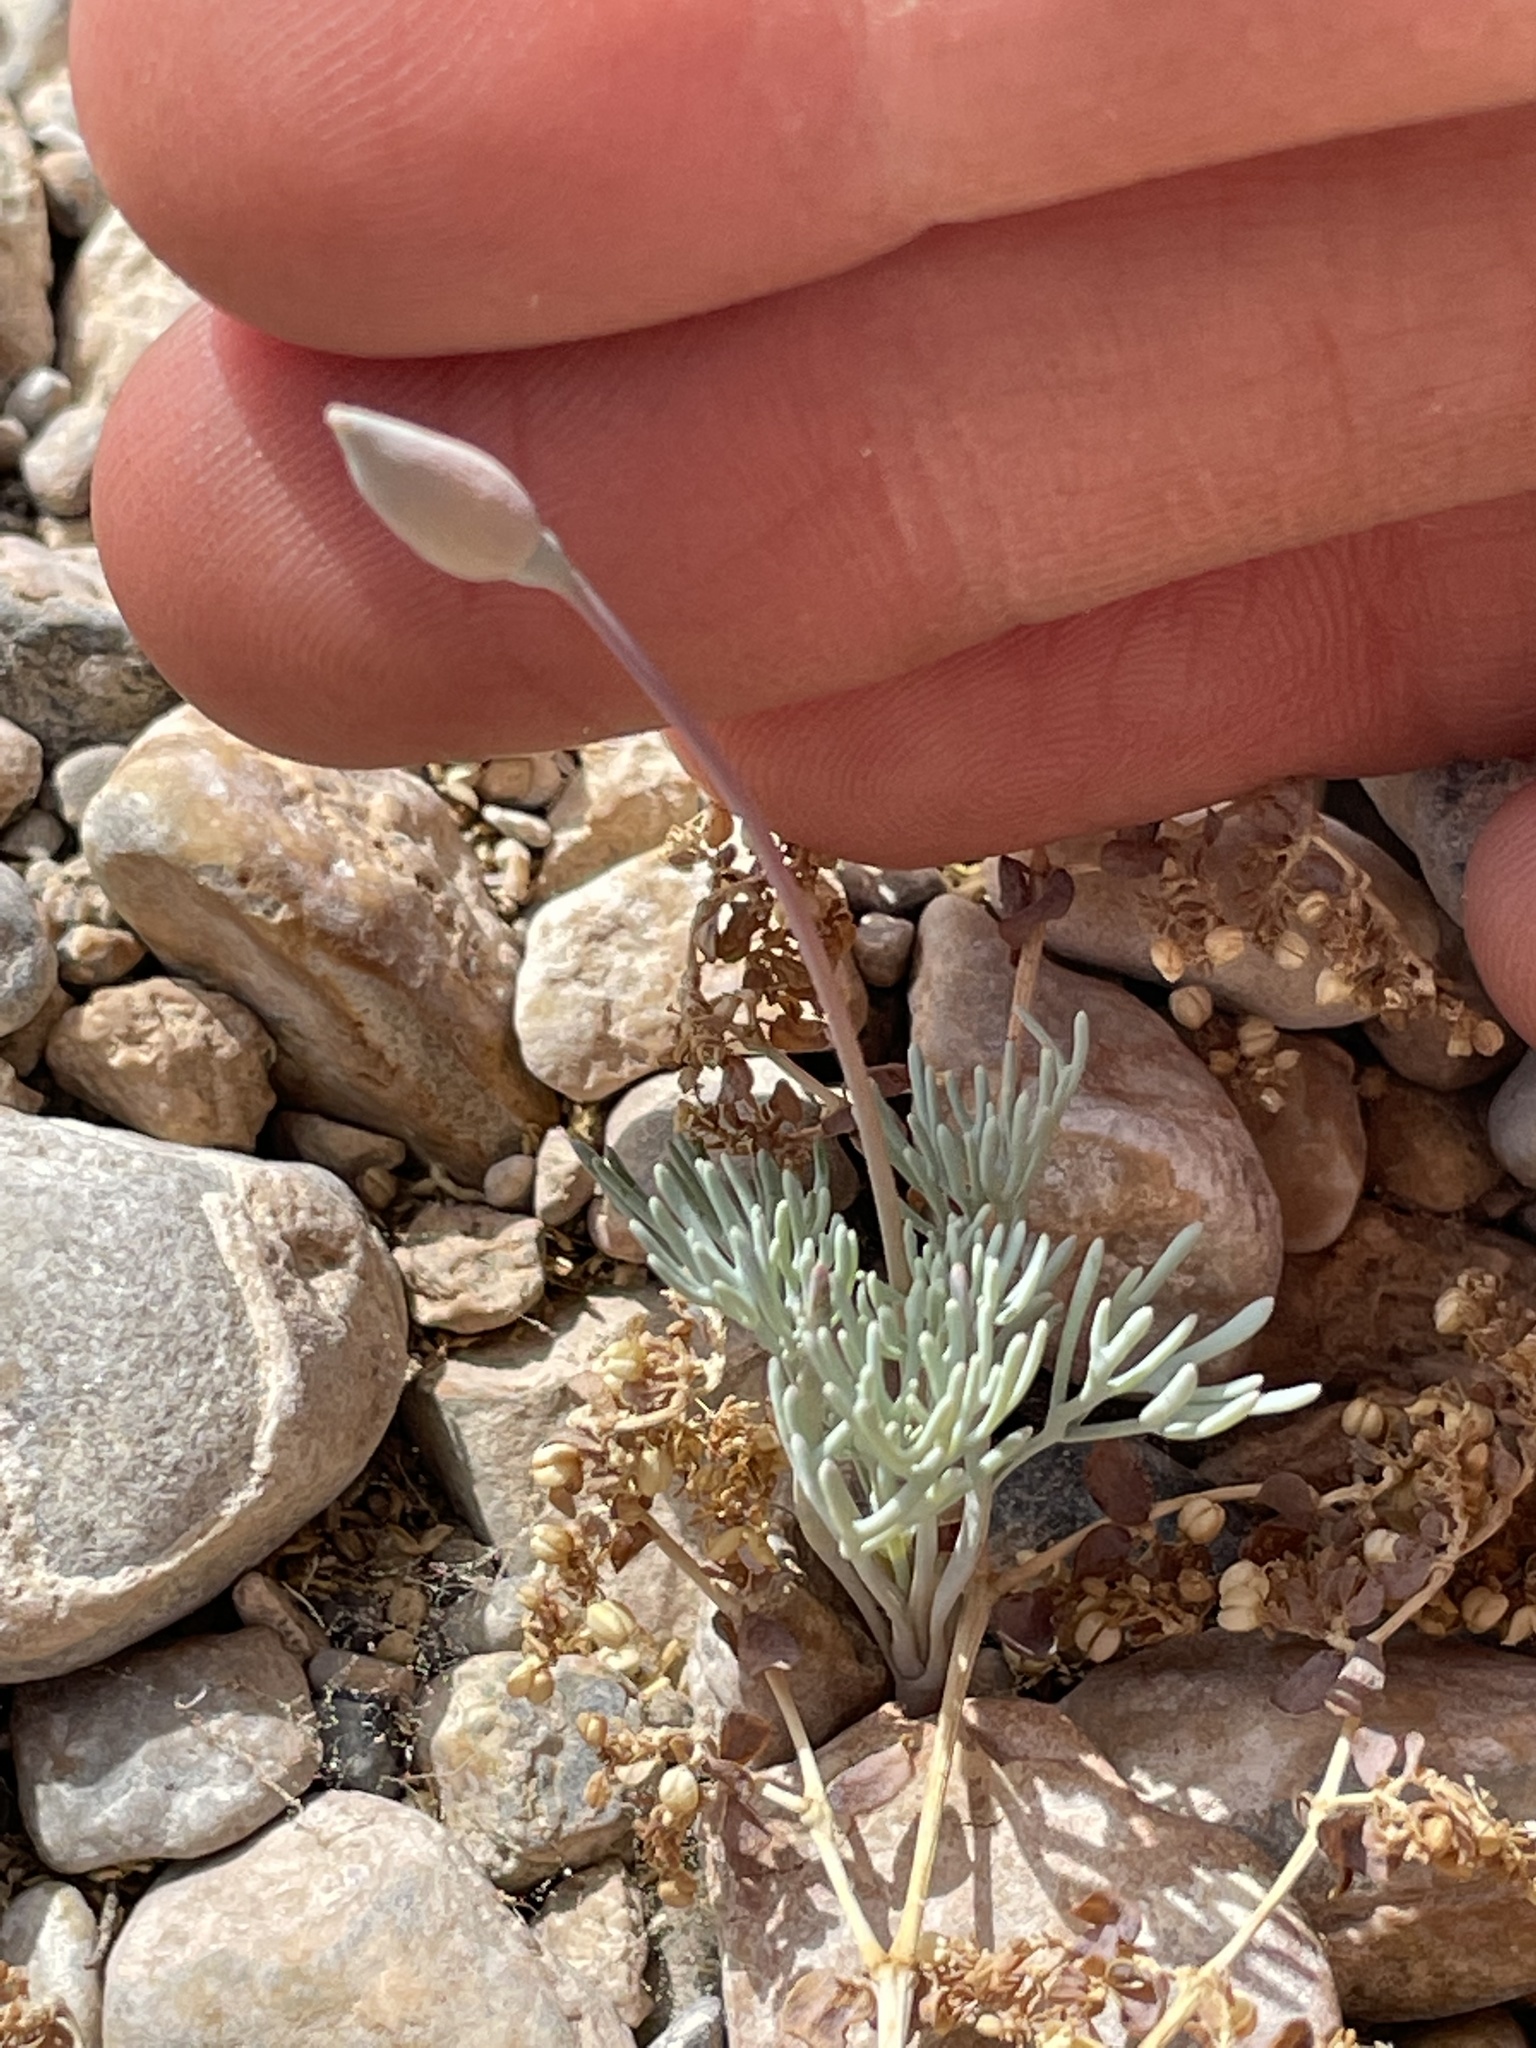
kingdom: Plantae
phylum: Tracheophyta
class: Magnoliopsida
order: Ranunculales
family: Papaveraceae
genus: Eschscholzia
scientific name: Eschscholzia glyptosperma
